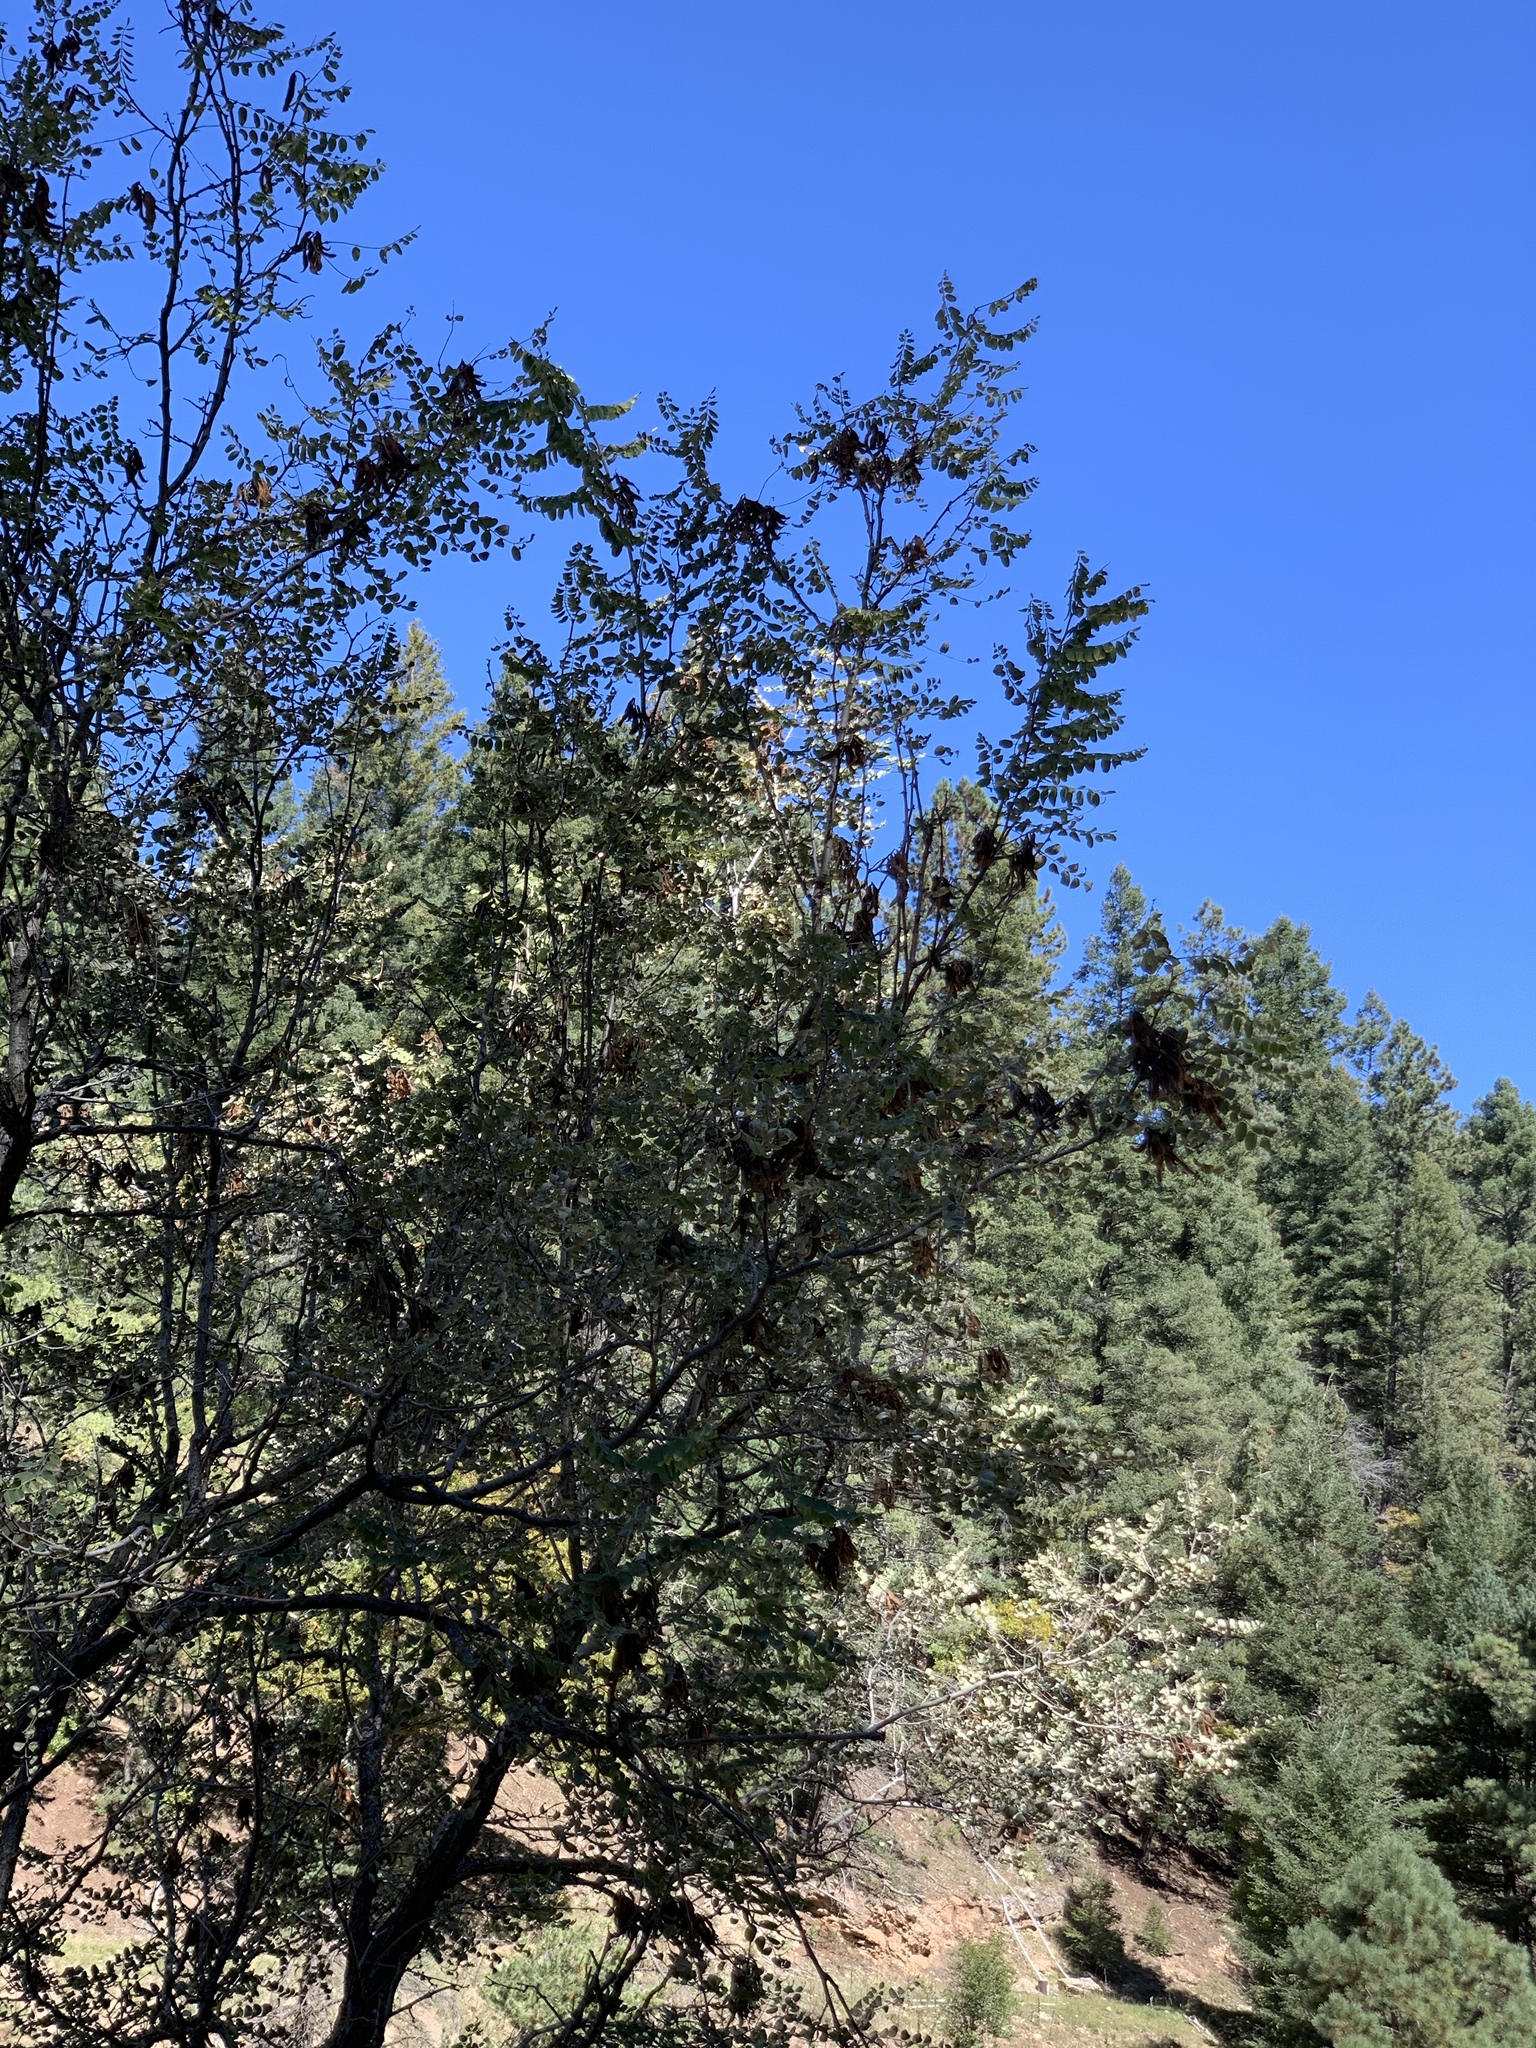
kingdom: Plantae
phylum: Tracheophyta
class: Magnoliopsida
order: Fabales
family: Fabaceae
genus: Robinia
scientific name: Robinia neomexicana
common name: New mexico locust
